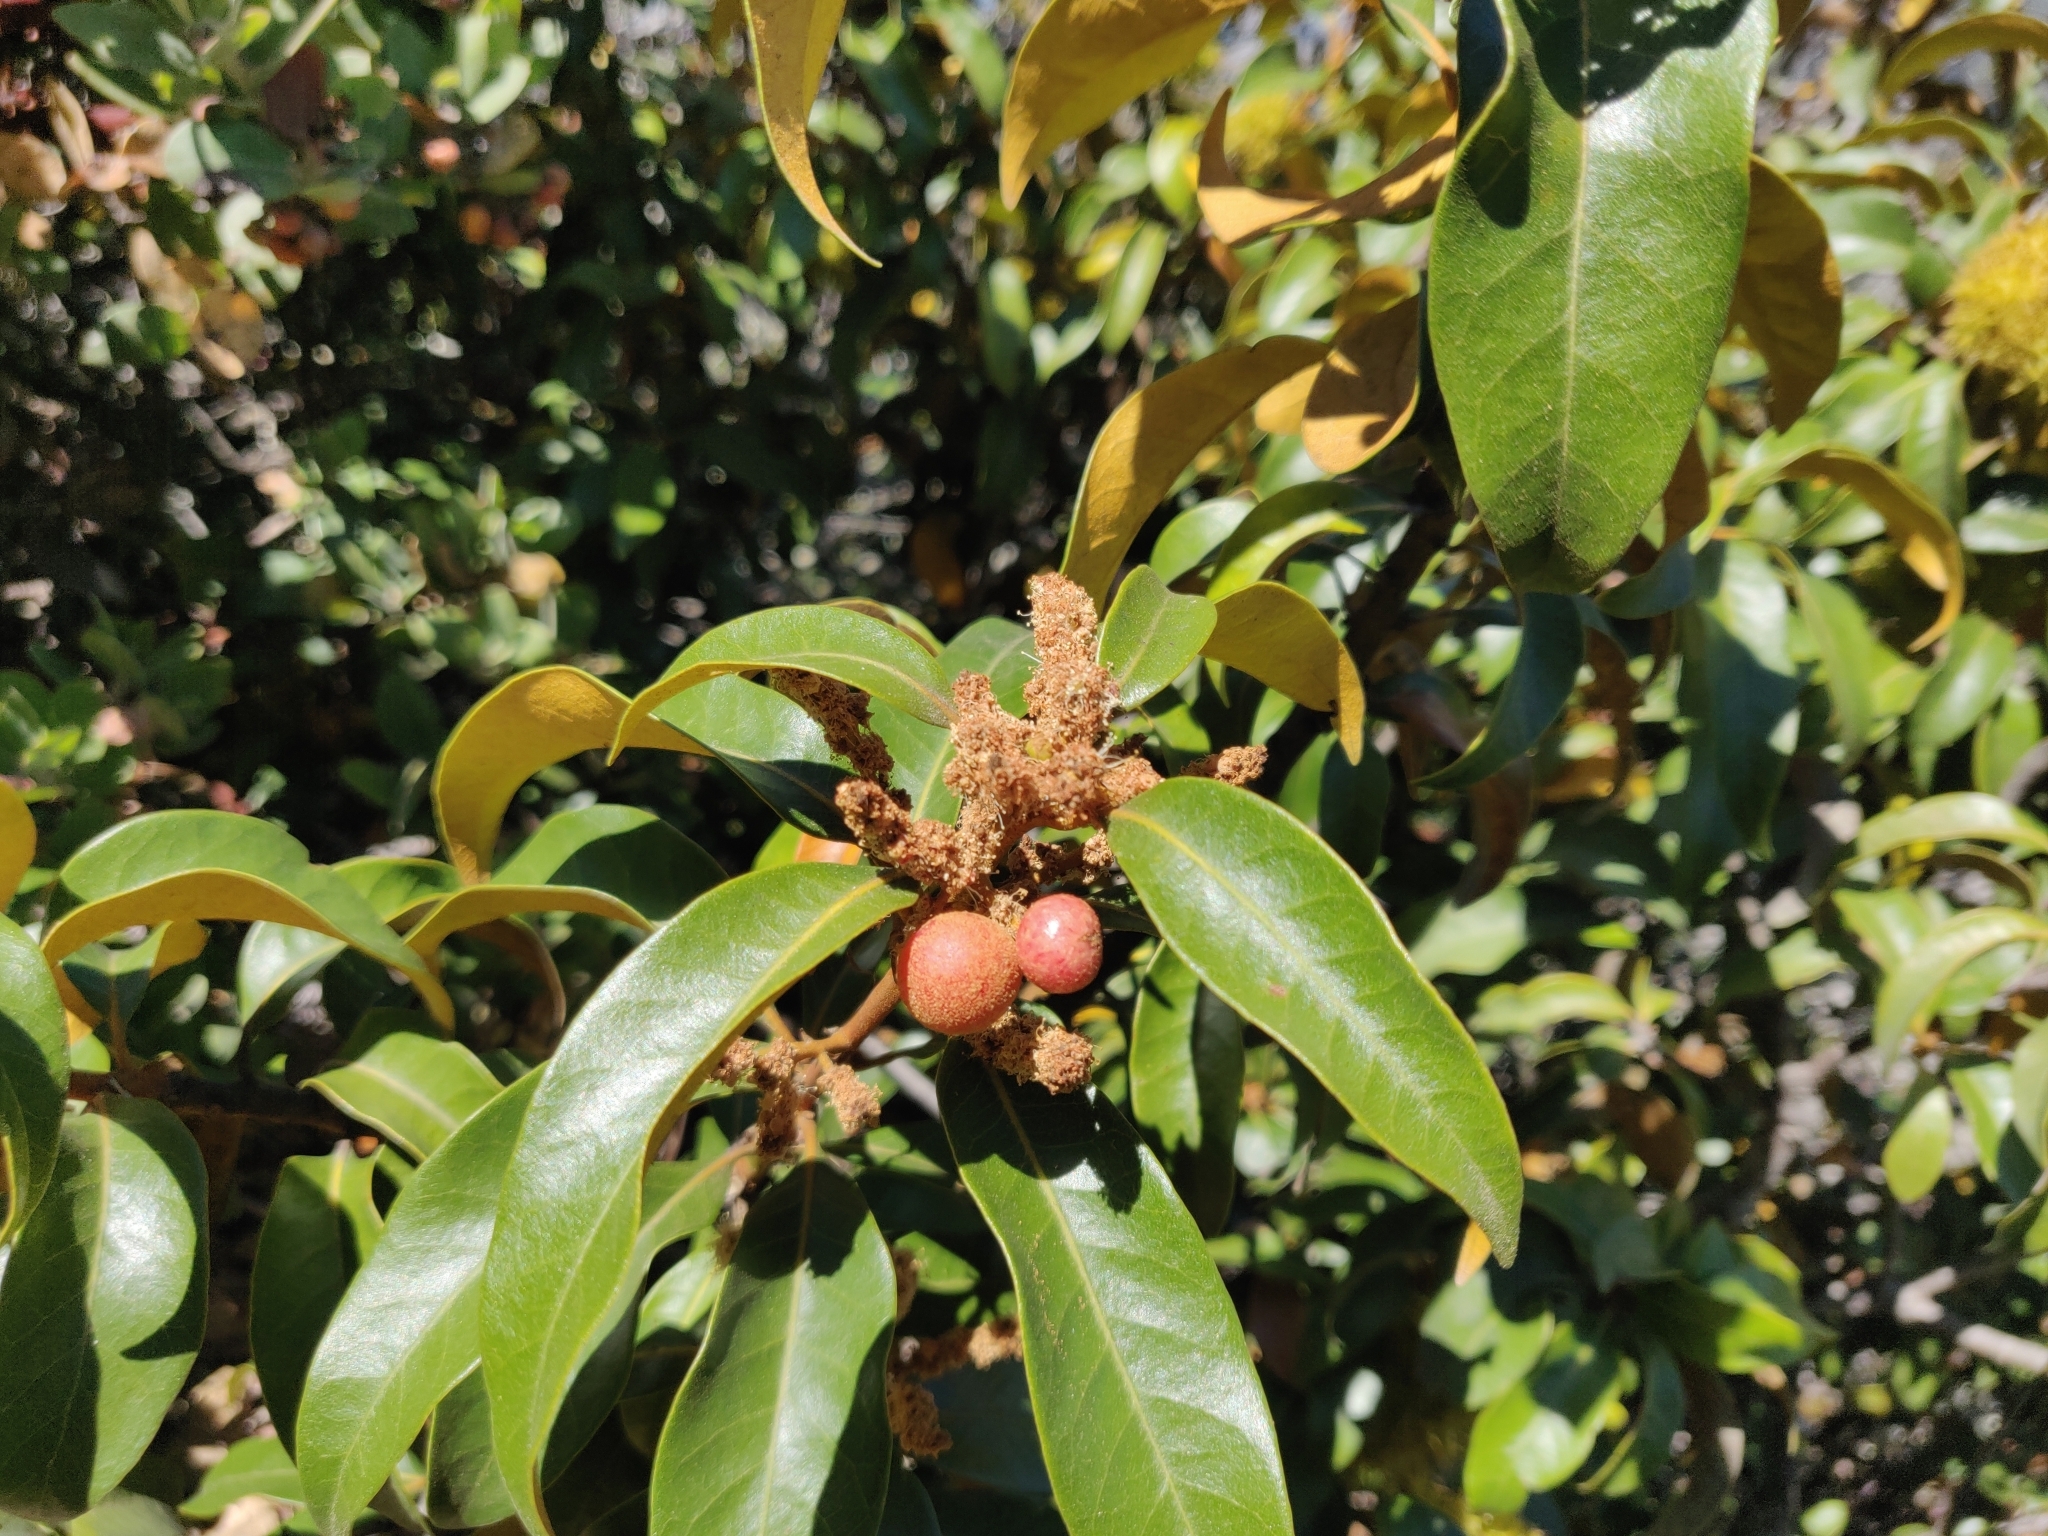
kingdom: Animalia
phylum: Arthropoda
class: Insecta
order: Hymenoptera
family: Cynipidae
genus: Synergus
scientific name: Synergus castanopsidis
